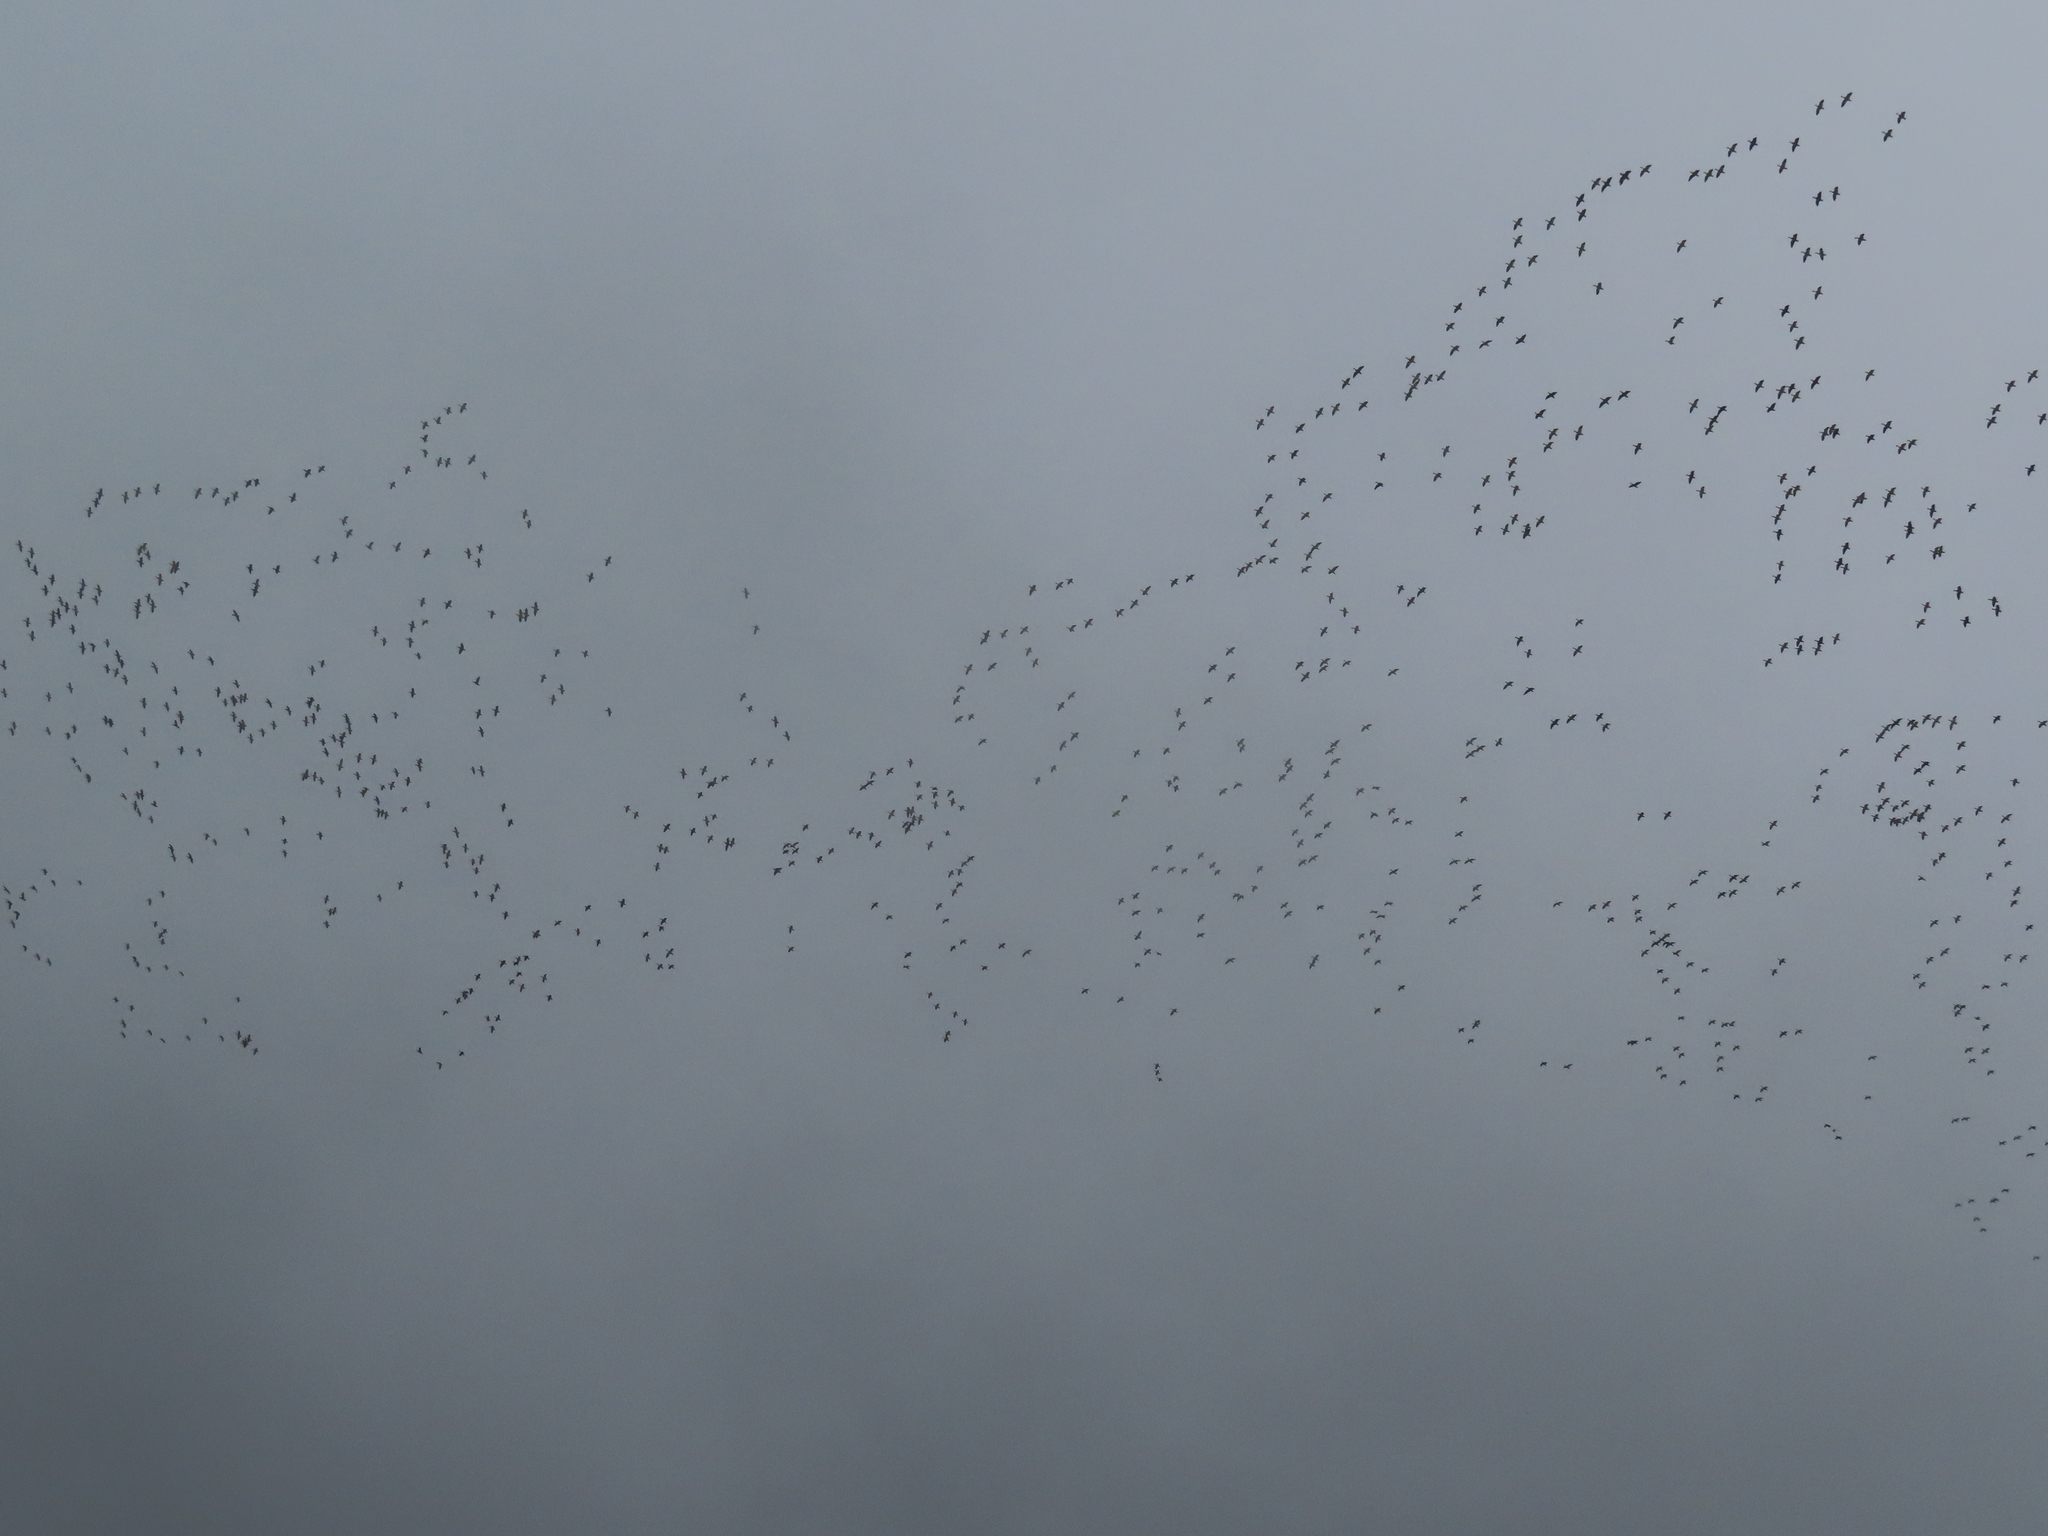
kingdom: Animalia
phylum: Chordata
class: Aves
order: Anseriformes
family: Anatidae
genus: Anser
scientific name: Anser caerulescens
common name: Snow goose
